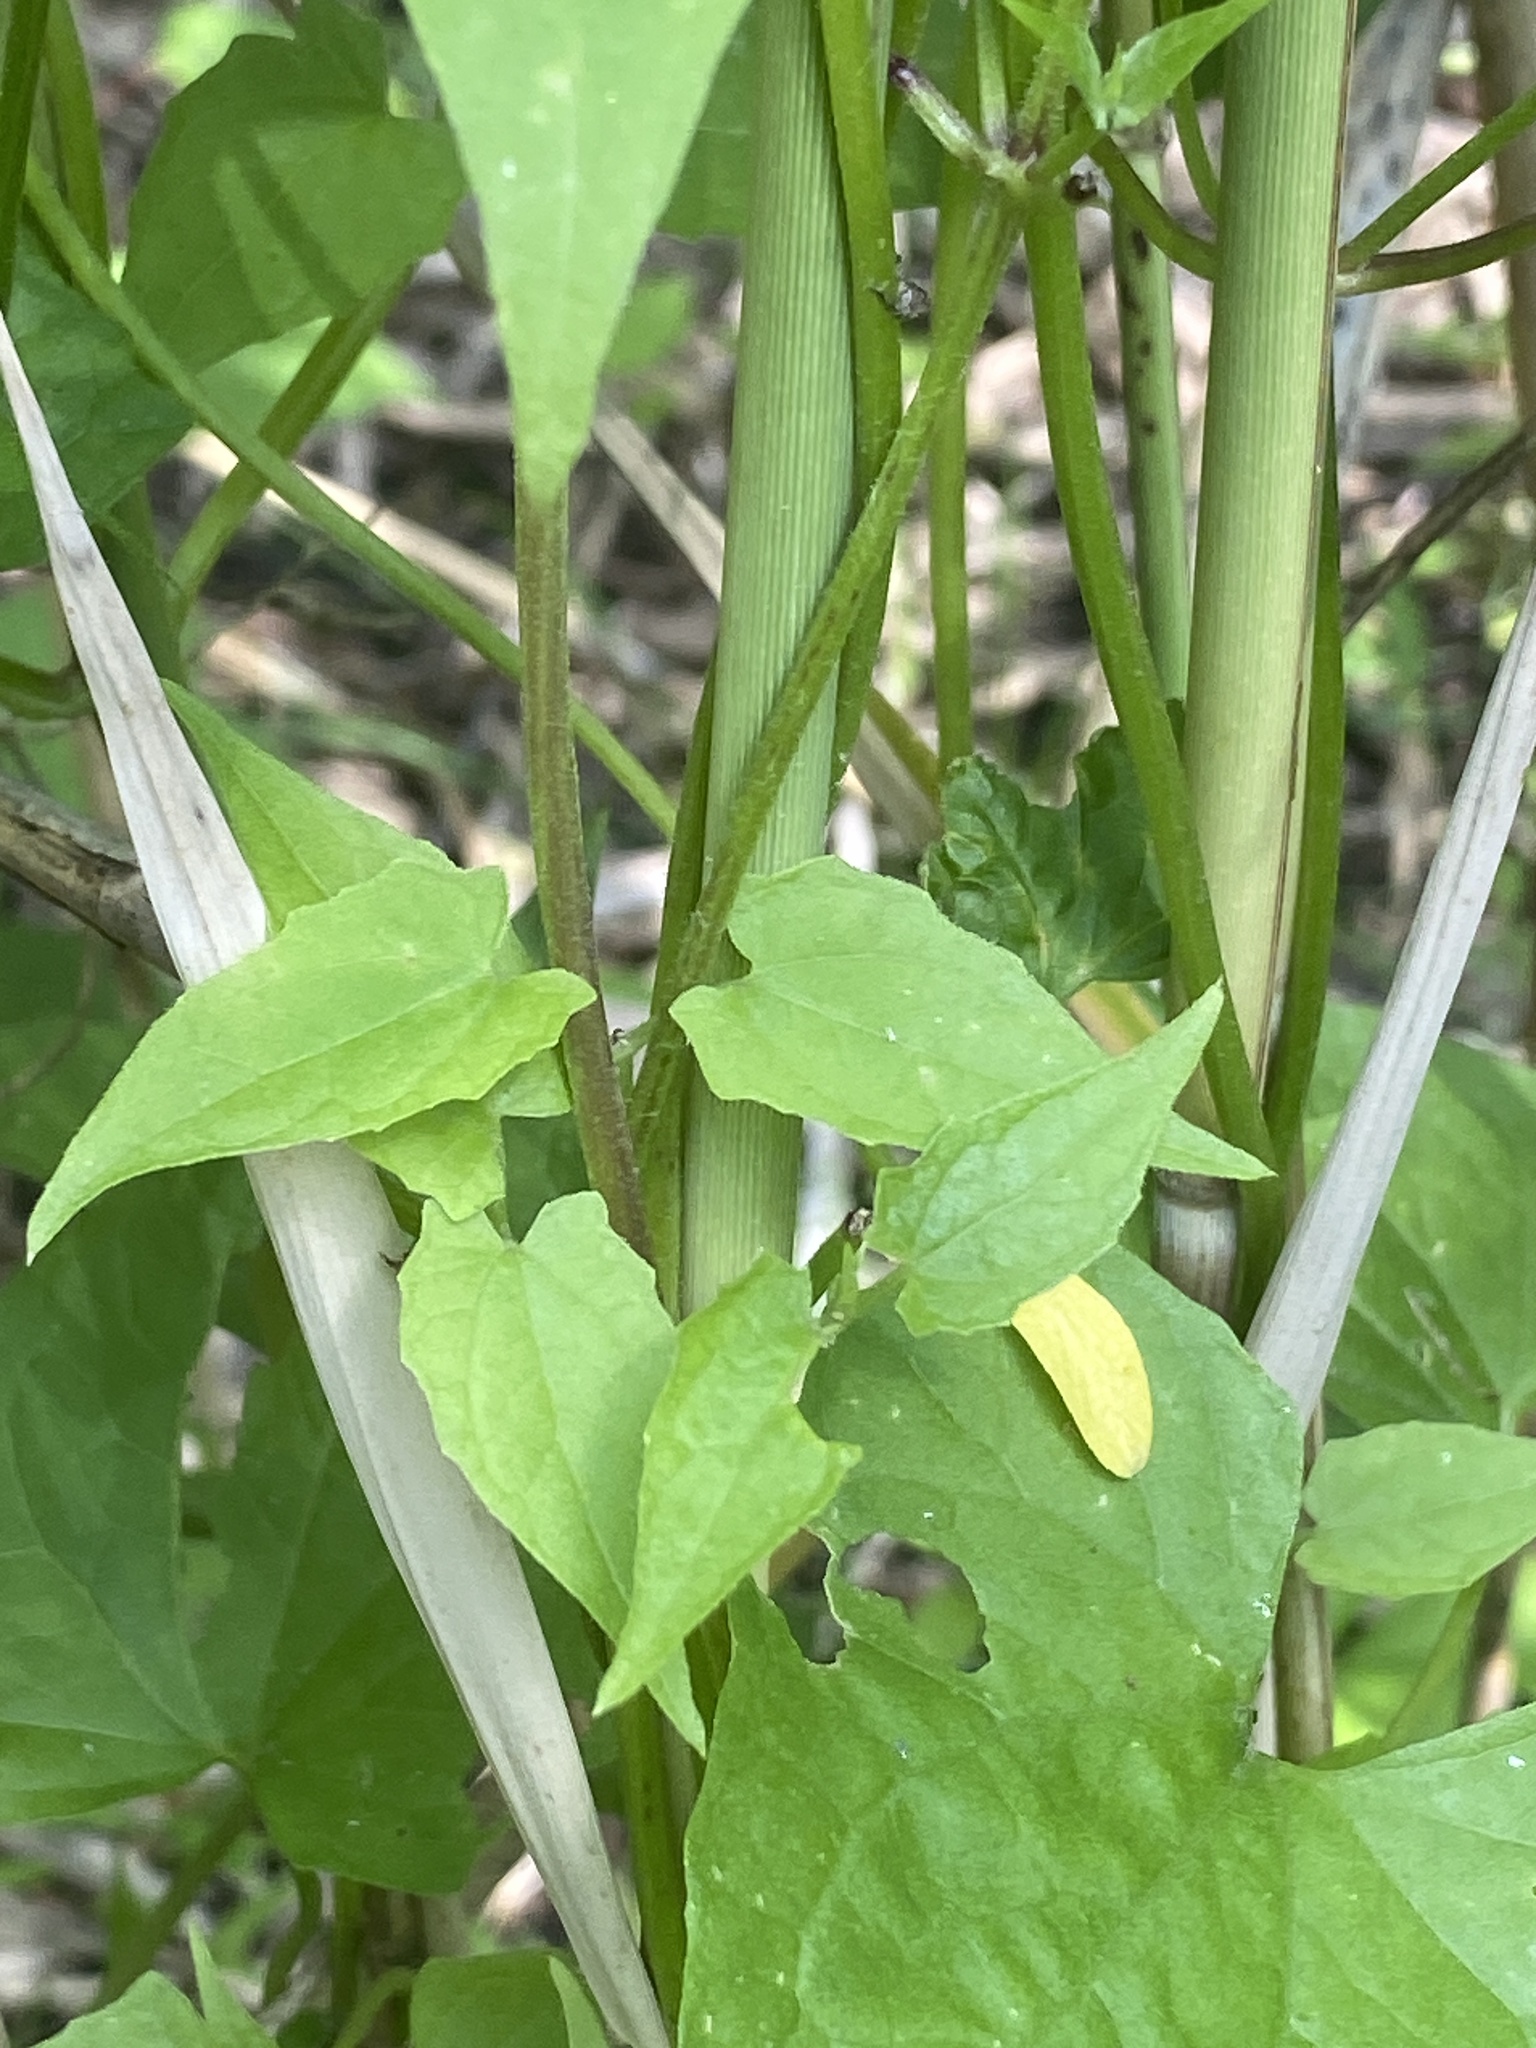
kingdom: Plantae
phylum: Tracheophyta
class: Magnoliopsida
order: Asterales
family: Asteraceae
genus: Mikania
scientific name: Mikania scandens
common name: Climbing hempvine
